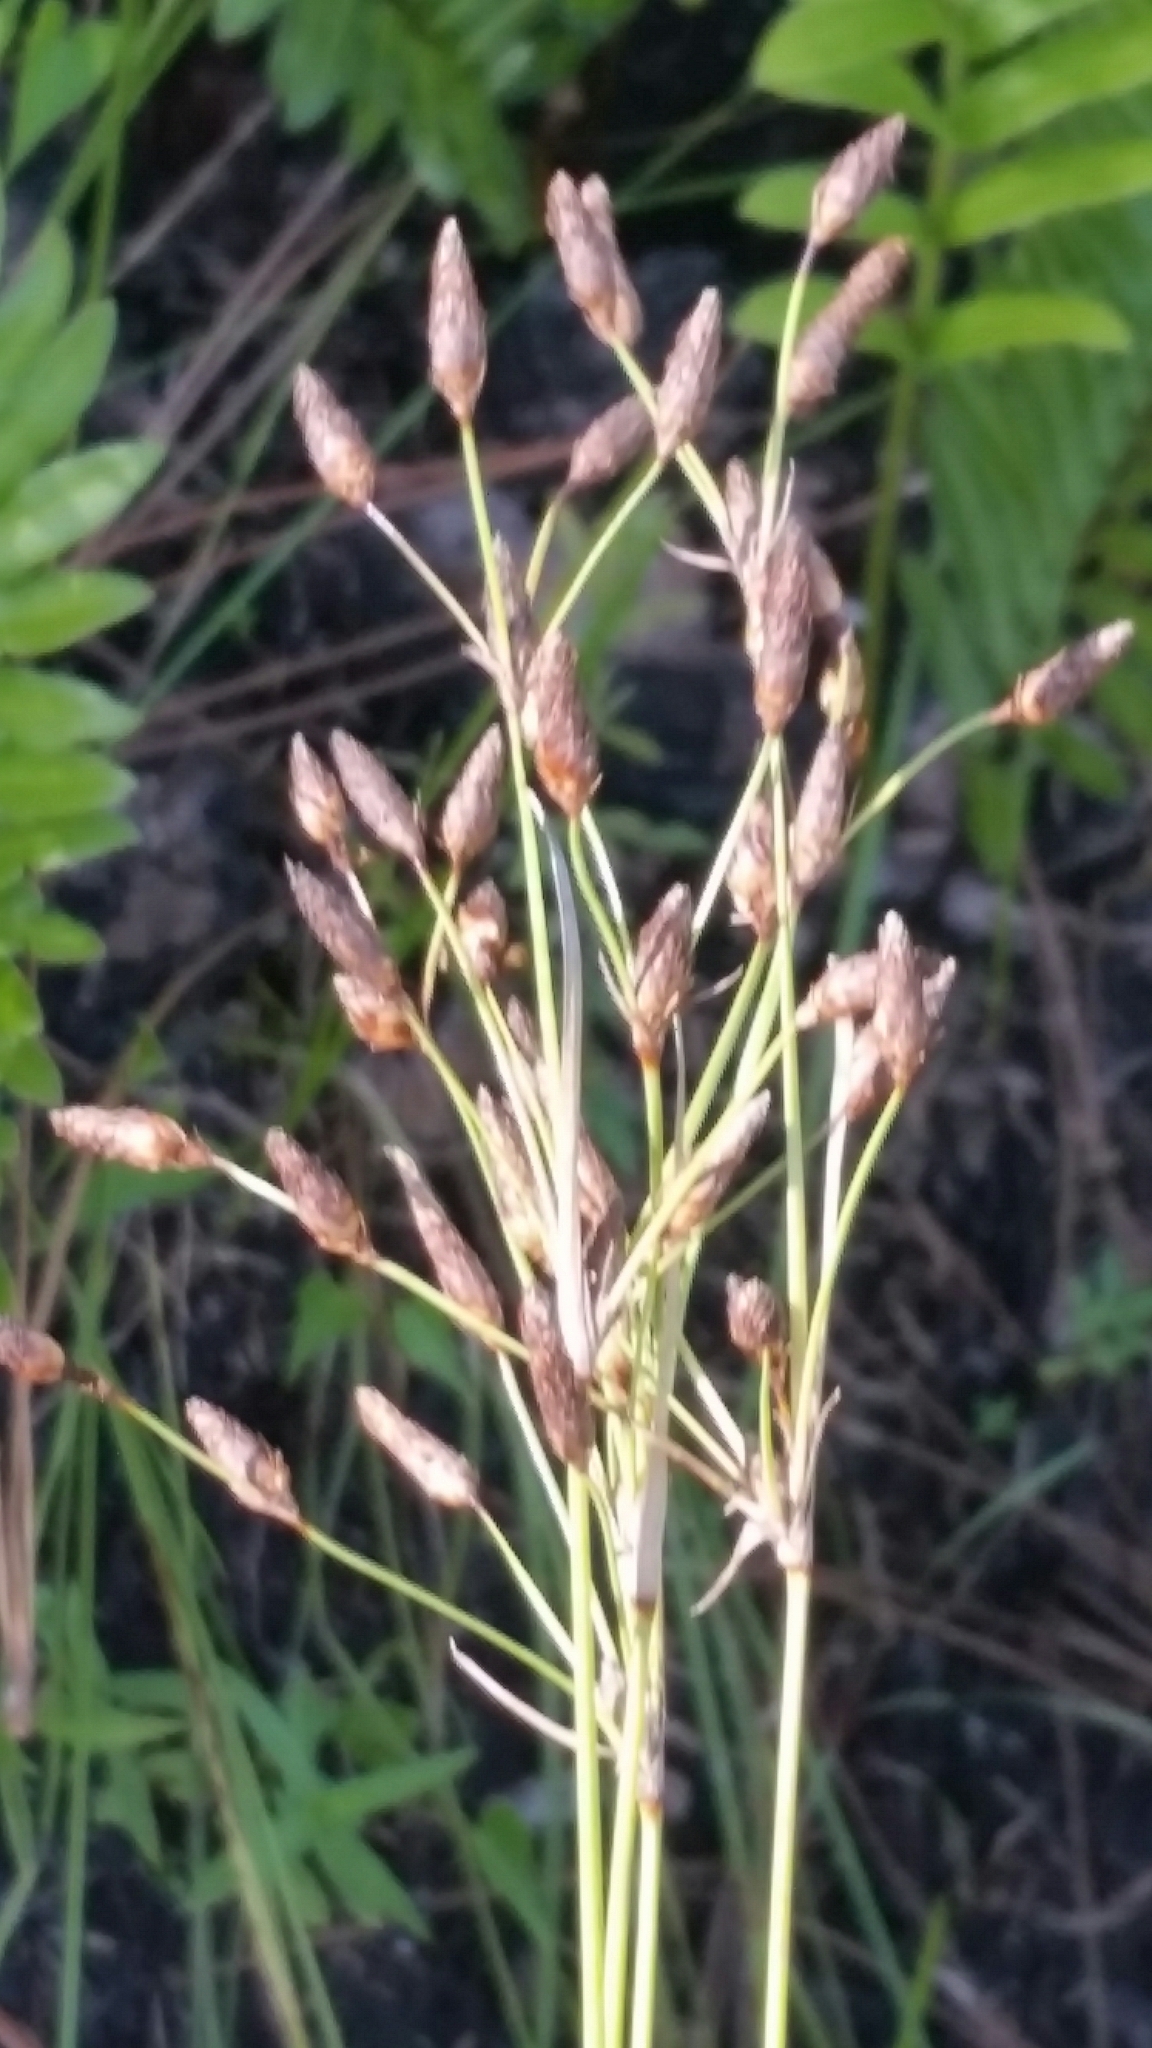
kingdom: Plantae
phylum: Tracheophyta
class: Liliopsida
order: Poales
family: Cyperaceae
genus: Fimbristylis
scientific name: Fimbristylis spadicea
